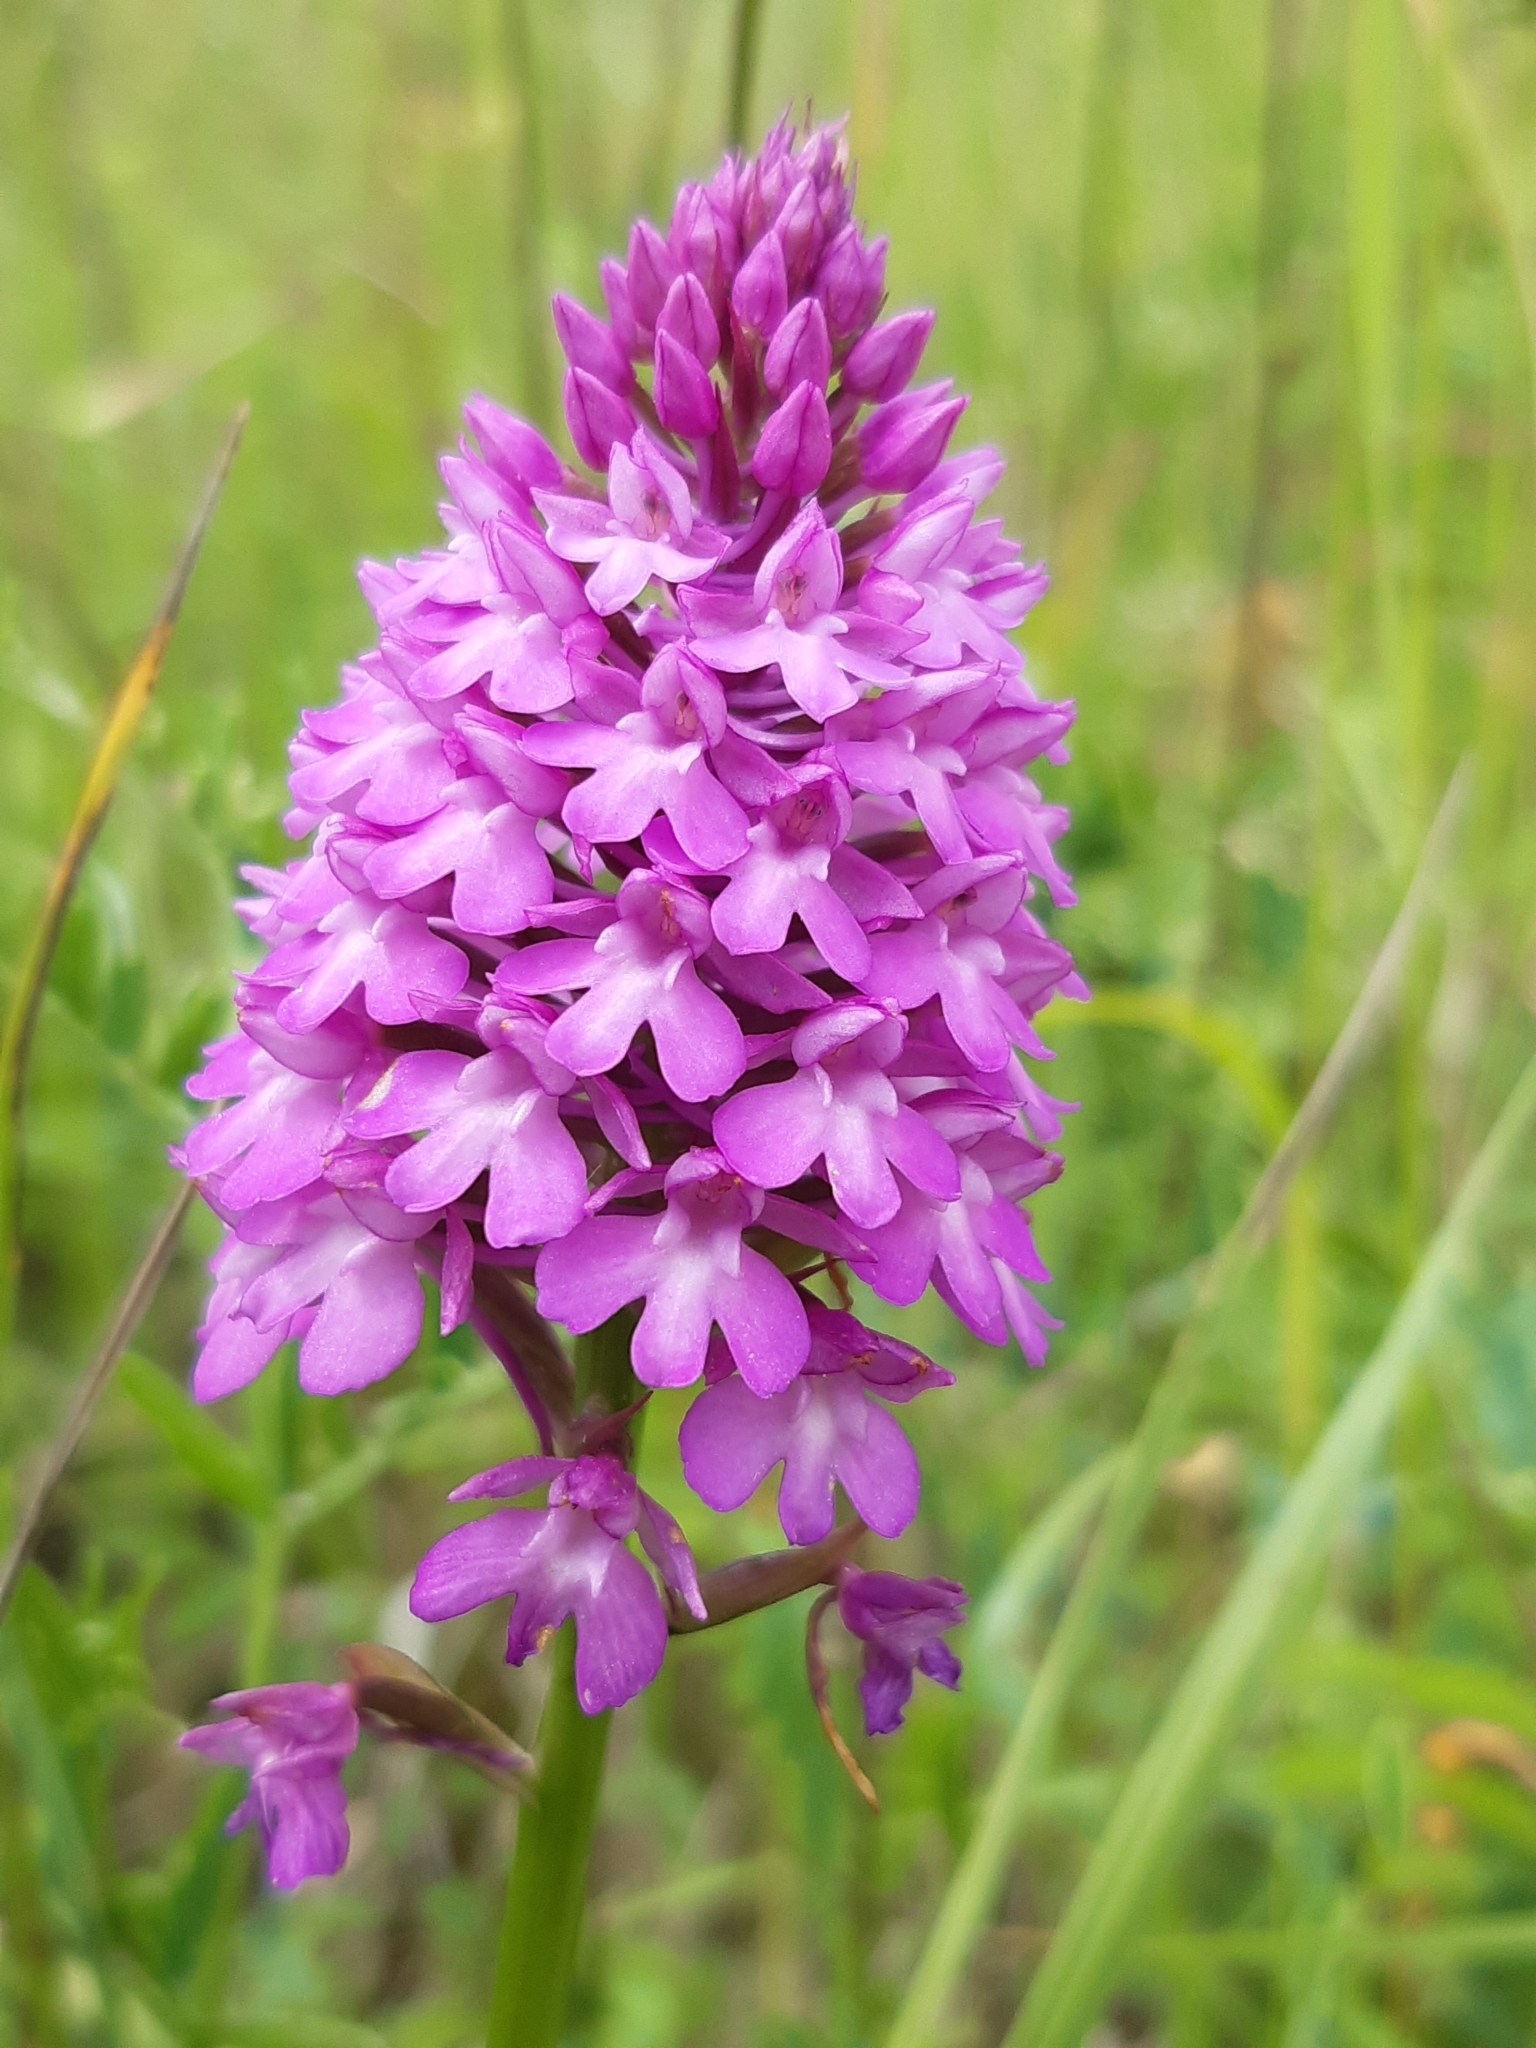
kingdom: Plantae
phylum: Tracheophyta
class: Liliopsida
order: Asparagales
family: Orchidaceae
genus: Anacamptis
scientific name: Anacamptis pyramidalis
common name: Pyramidal orchid
